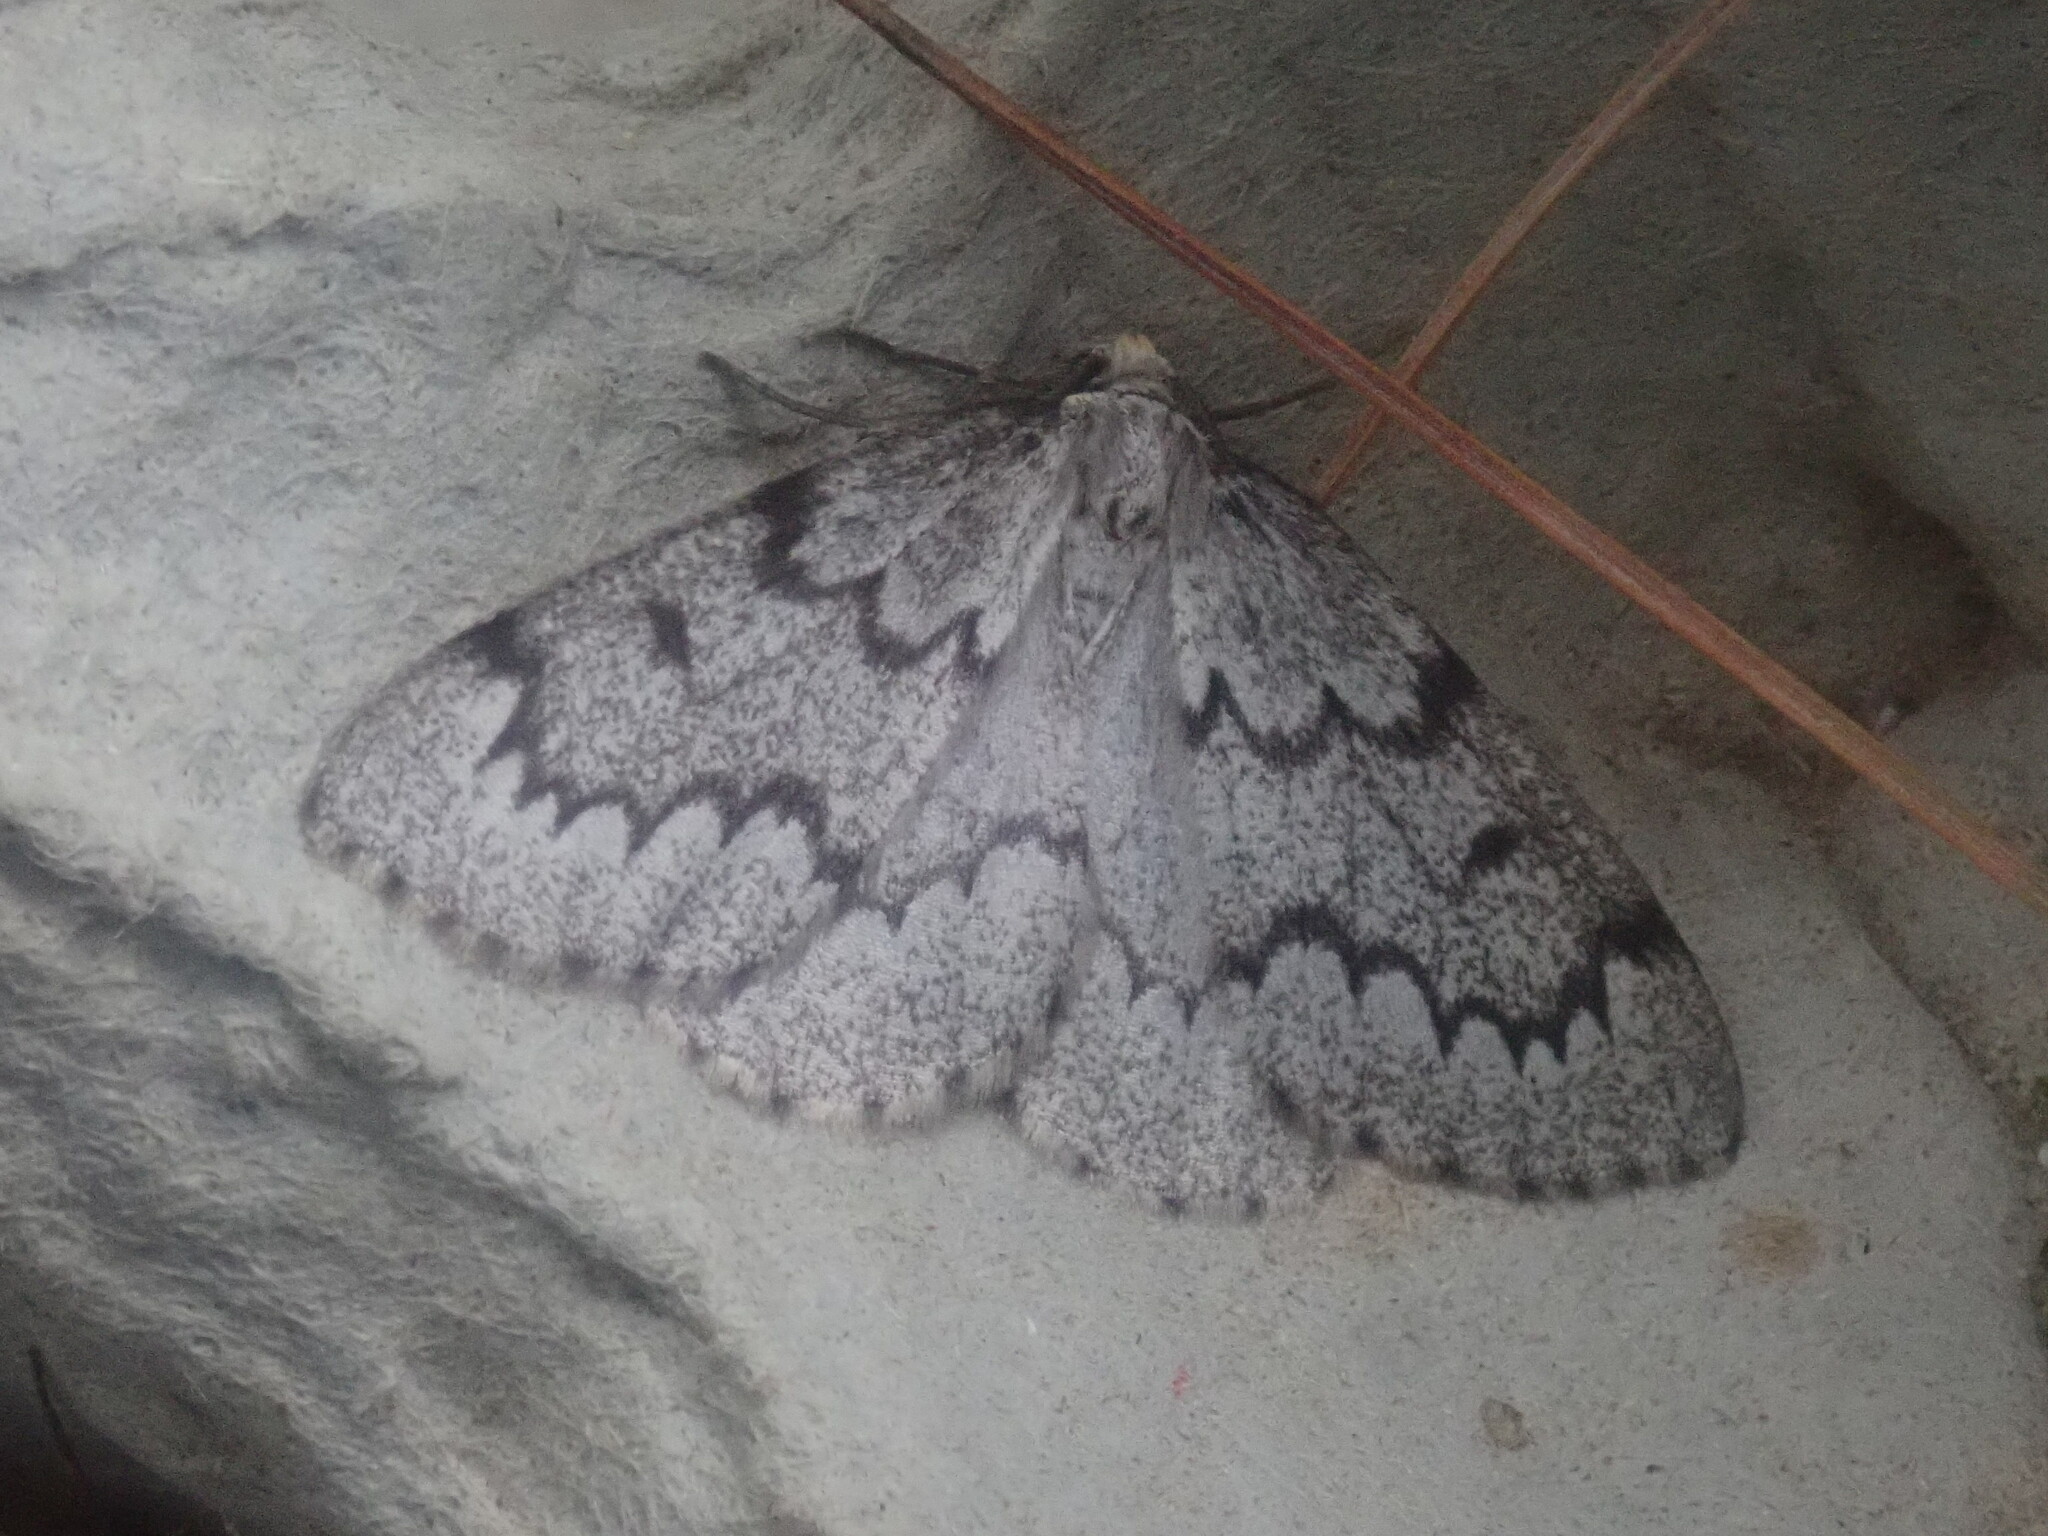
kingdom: Animalia
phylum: Arthropoda
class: Insecta
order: Lepidoptera
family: Geometridae
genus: Nepytia
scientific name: Nepytia canosaria
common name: False hemlock looper
